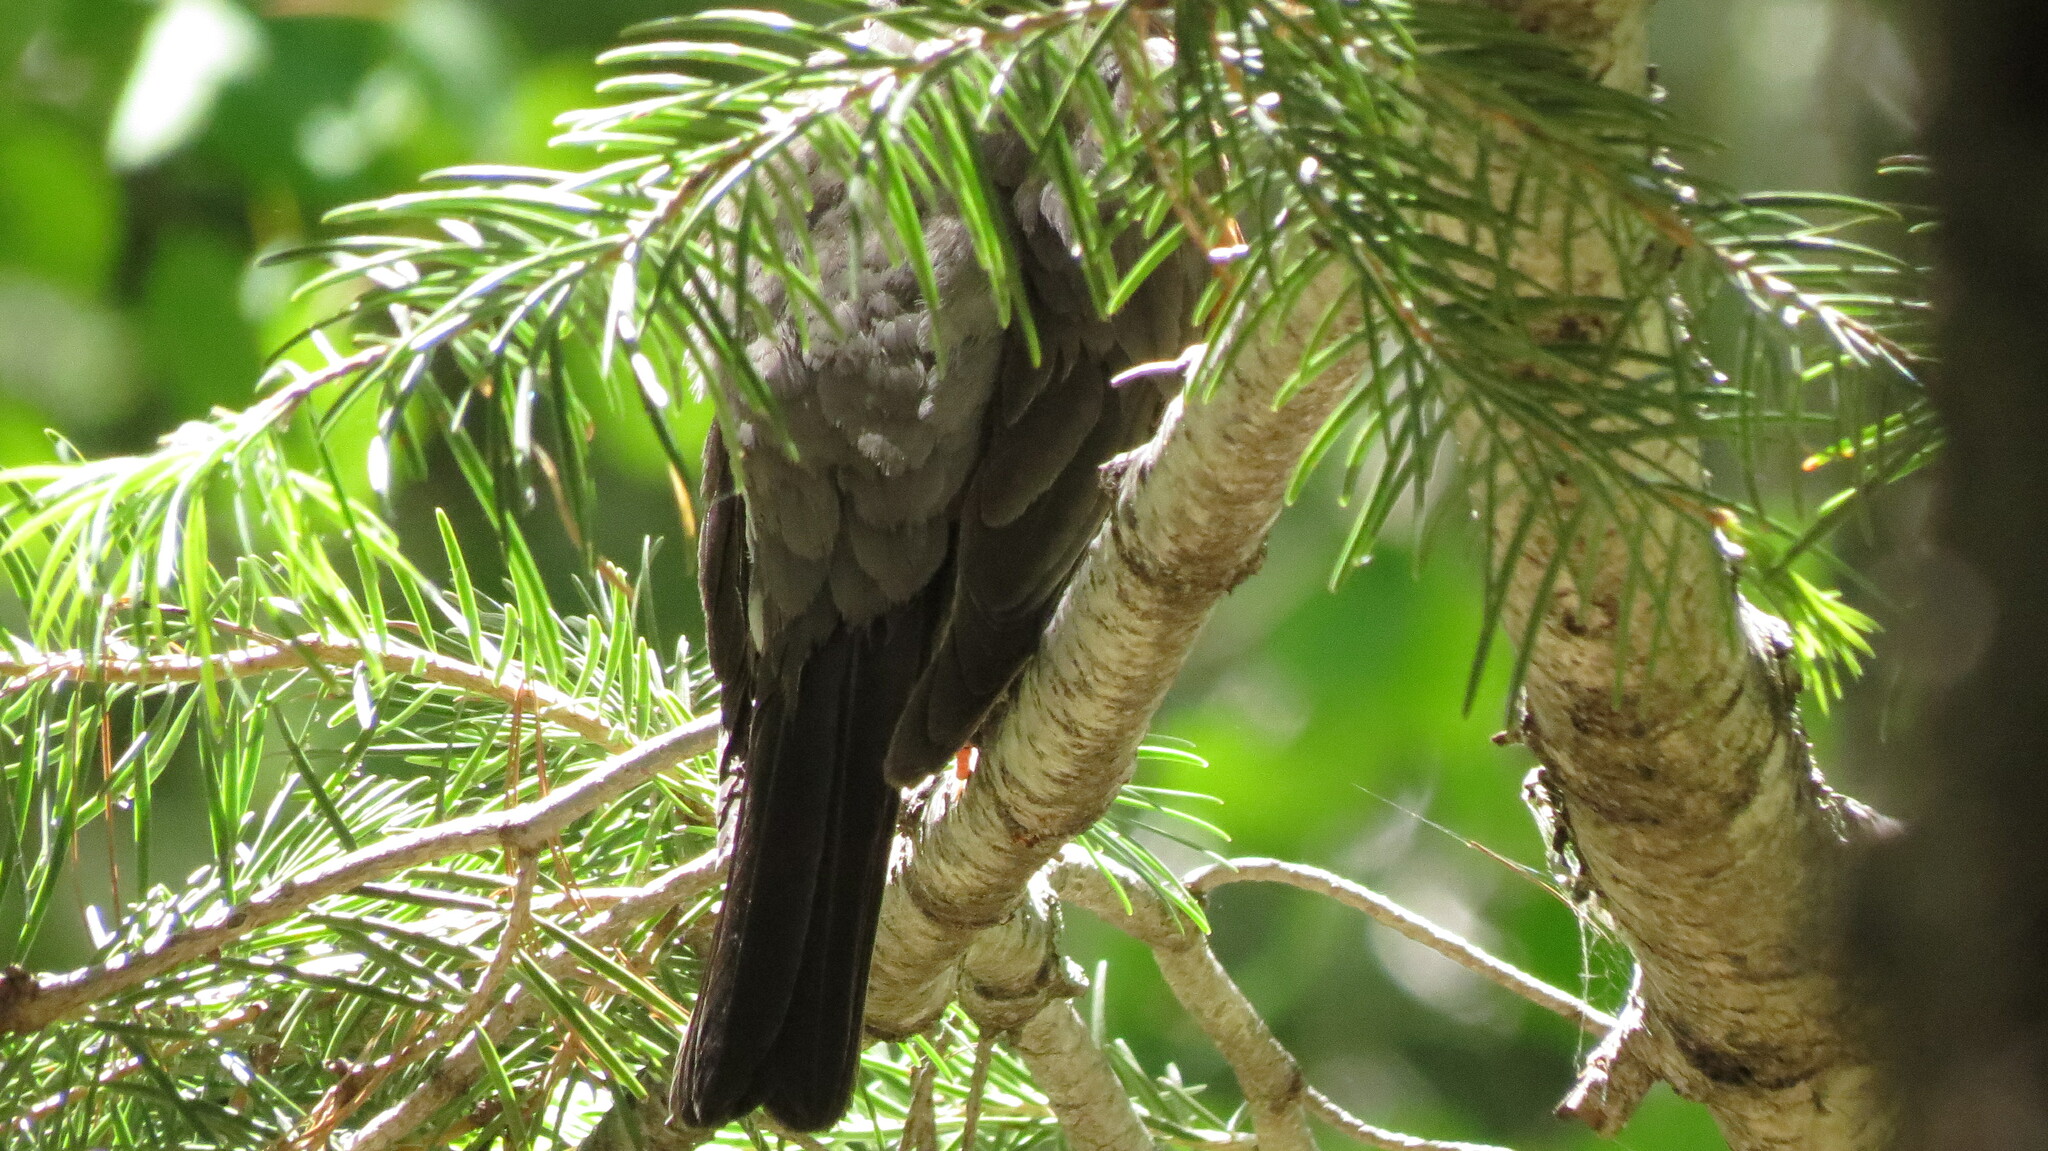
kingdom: Animalia
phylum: Chordata
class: Aves
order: Passeriformes
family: Turdidae
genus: Turdus
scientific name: Turdus migratorius
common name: American robin
